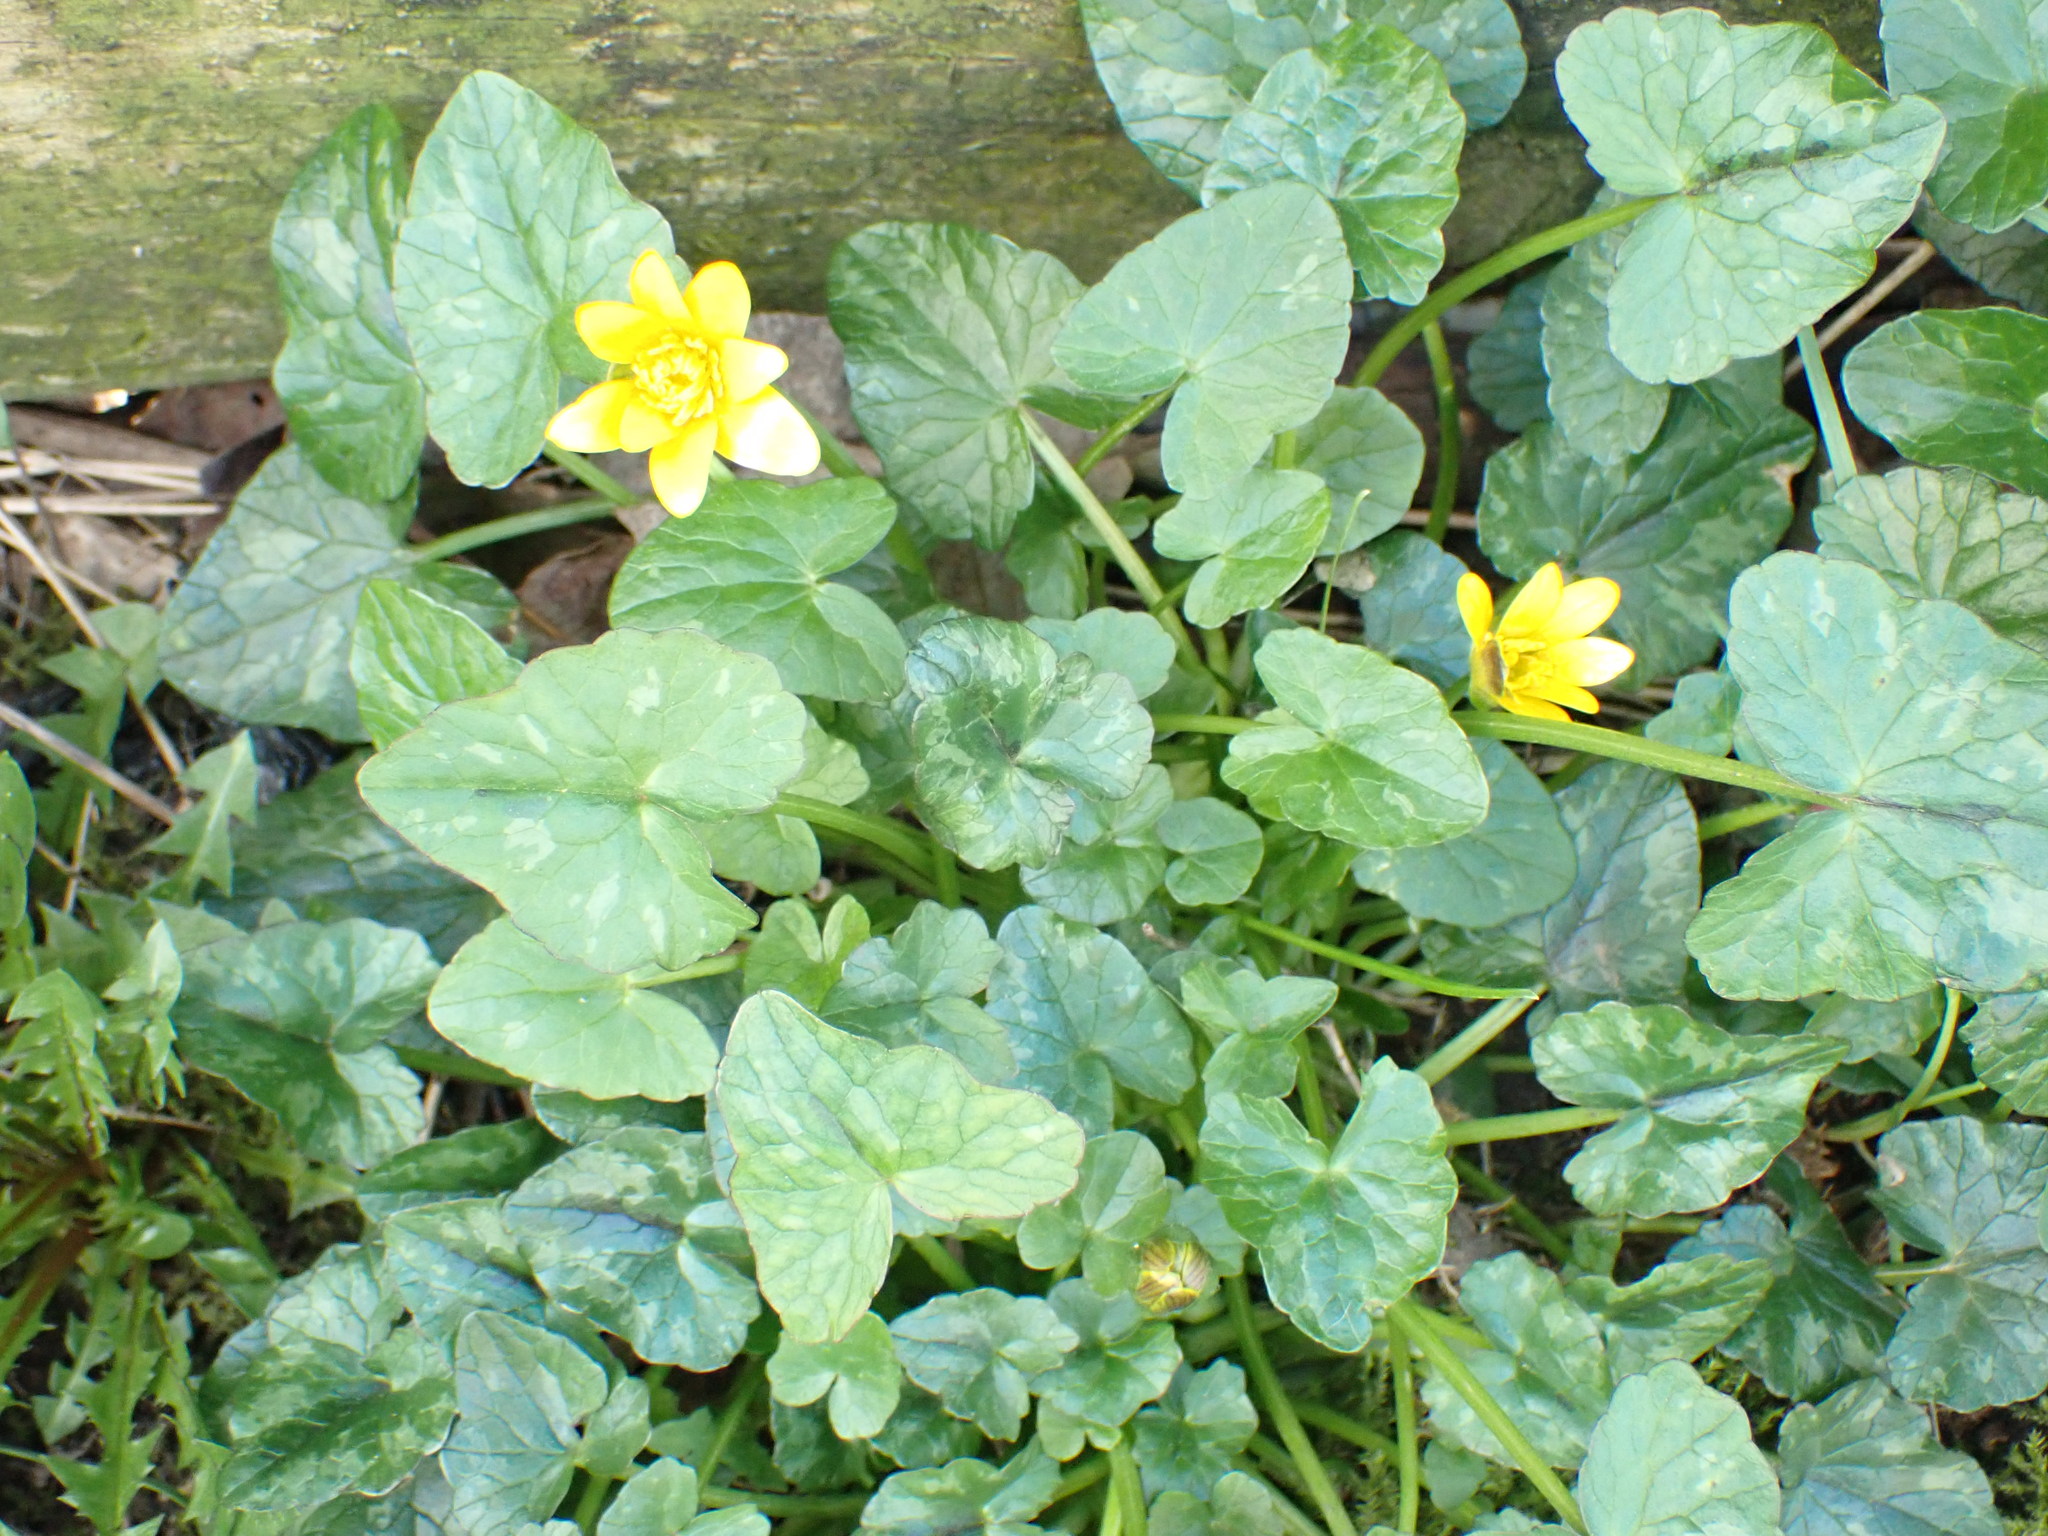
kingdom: Plantae
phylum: Tracheophyta
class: Magnoliopsida
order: Ranunculales
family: Ranunculaceae
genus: Ficaria
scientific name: Ficaria verna
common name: Lesser celandine
